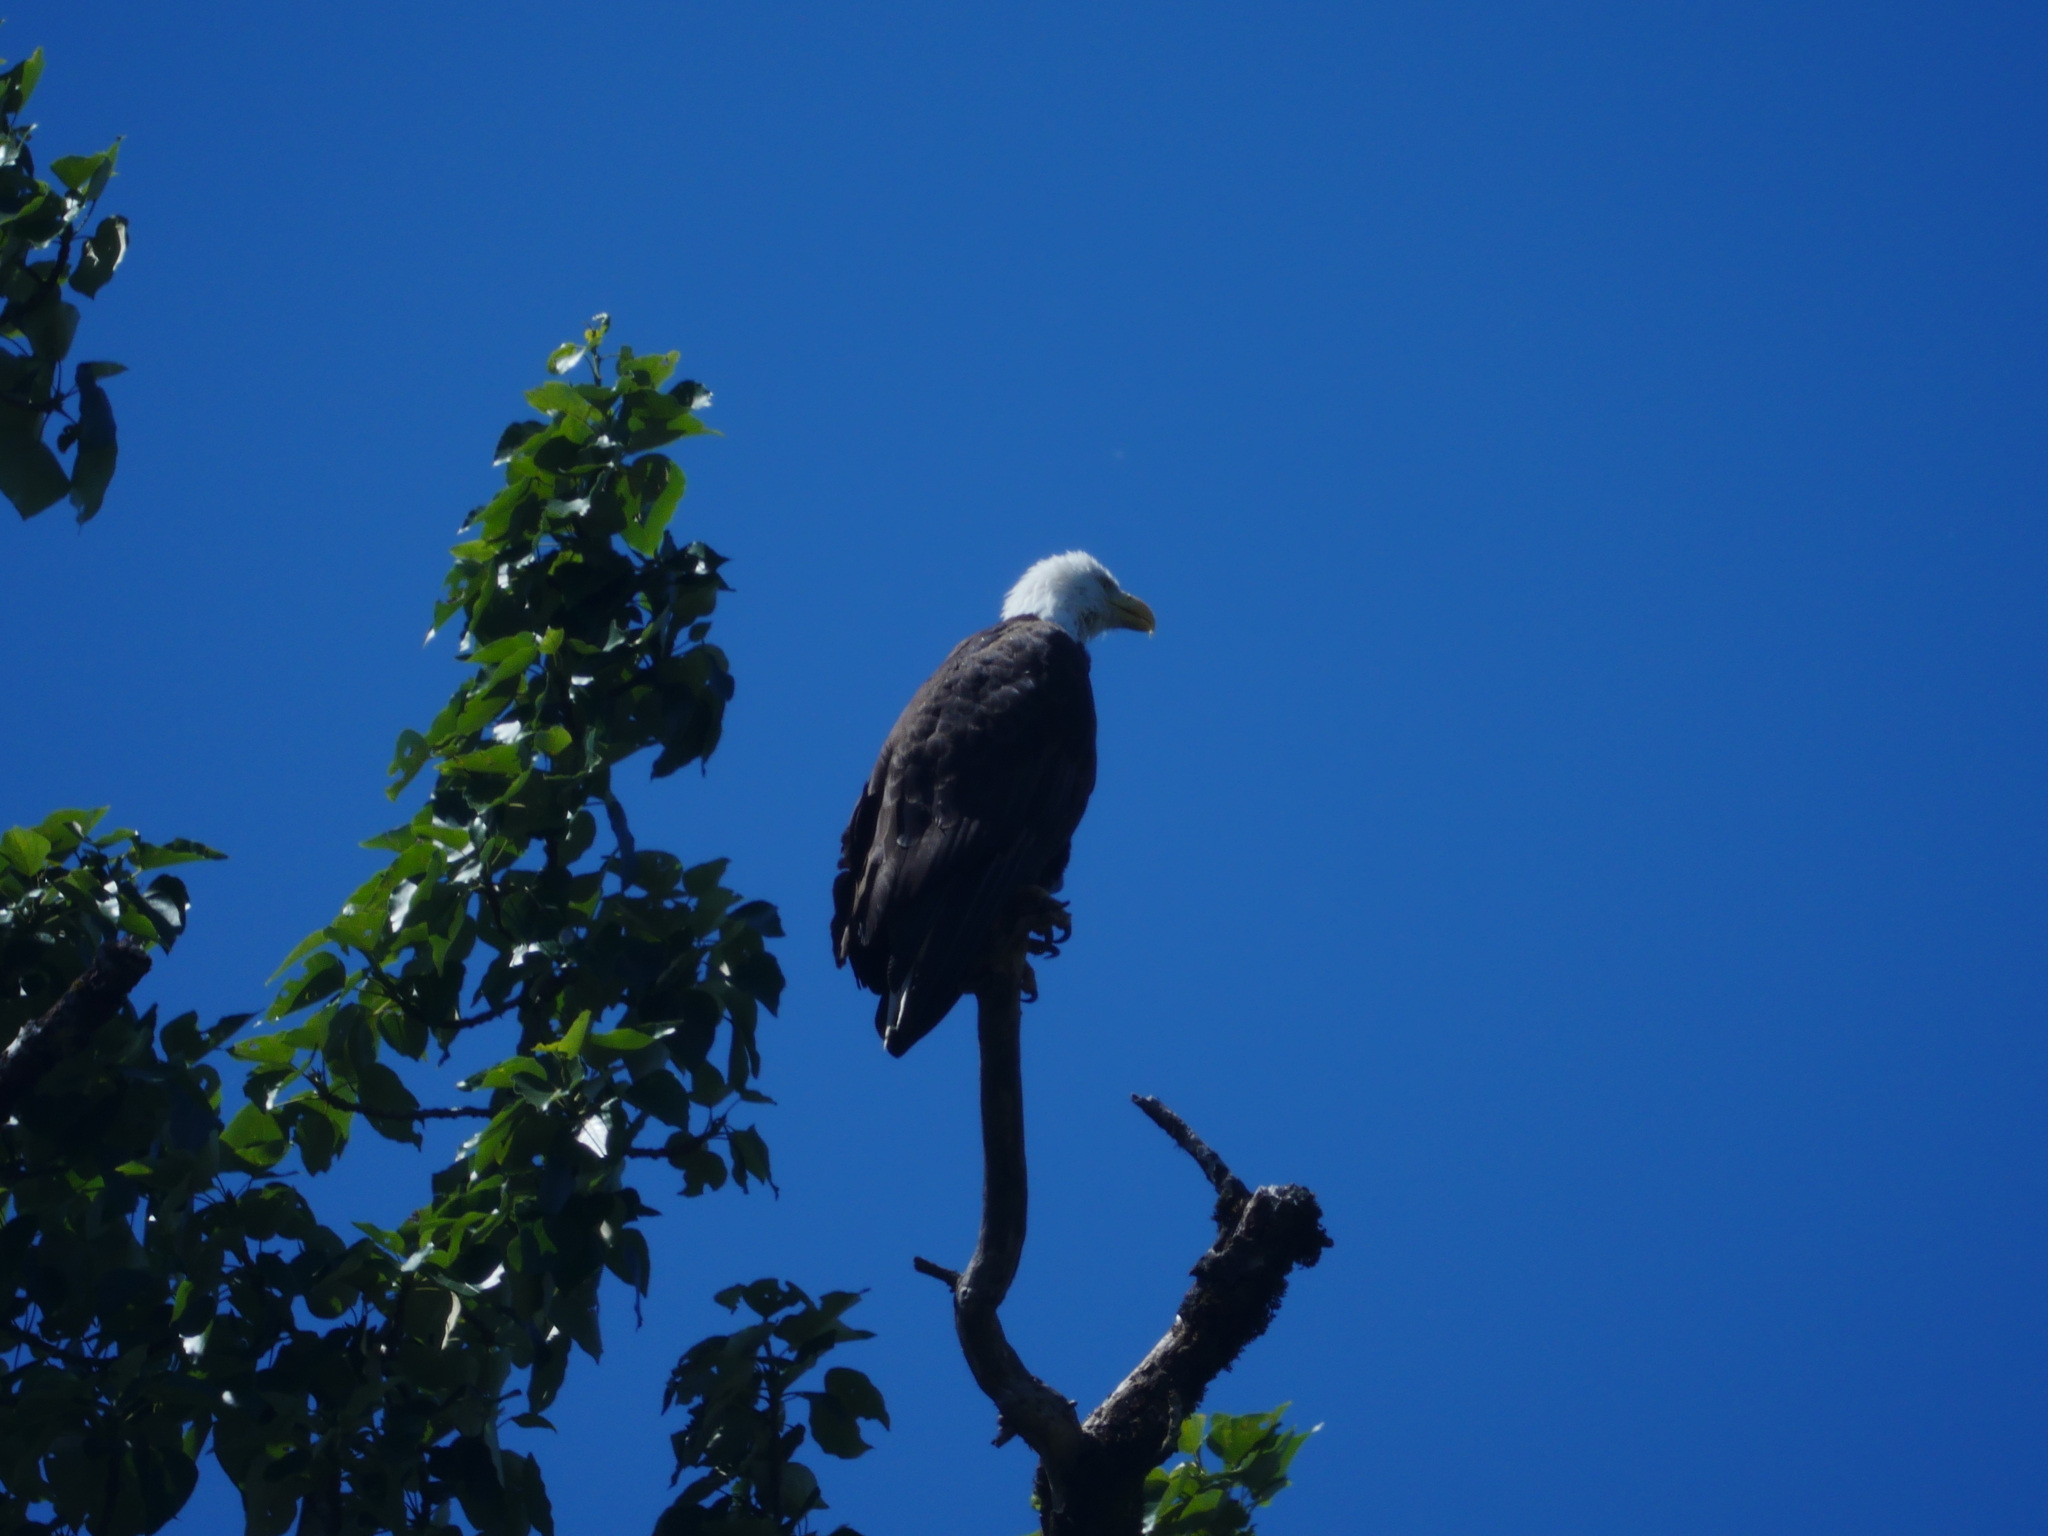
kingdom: Animalia
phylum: Chordata
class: Aves
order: Accipitriformes
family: Accipitridae
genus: Haliaeetus
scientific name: Haliaeetus leucocephalus
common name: Bald eagle
